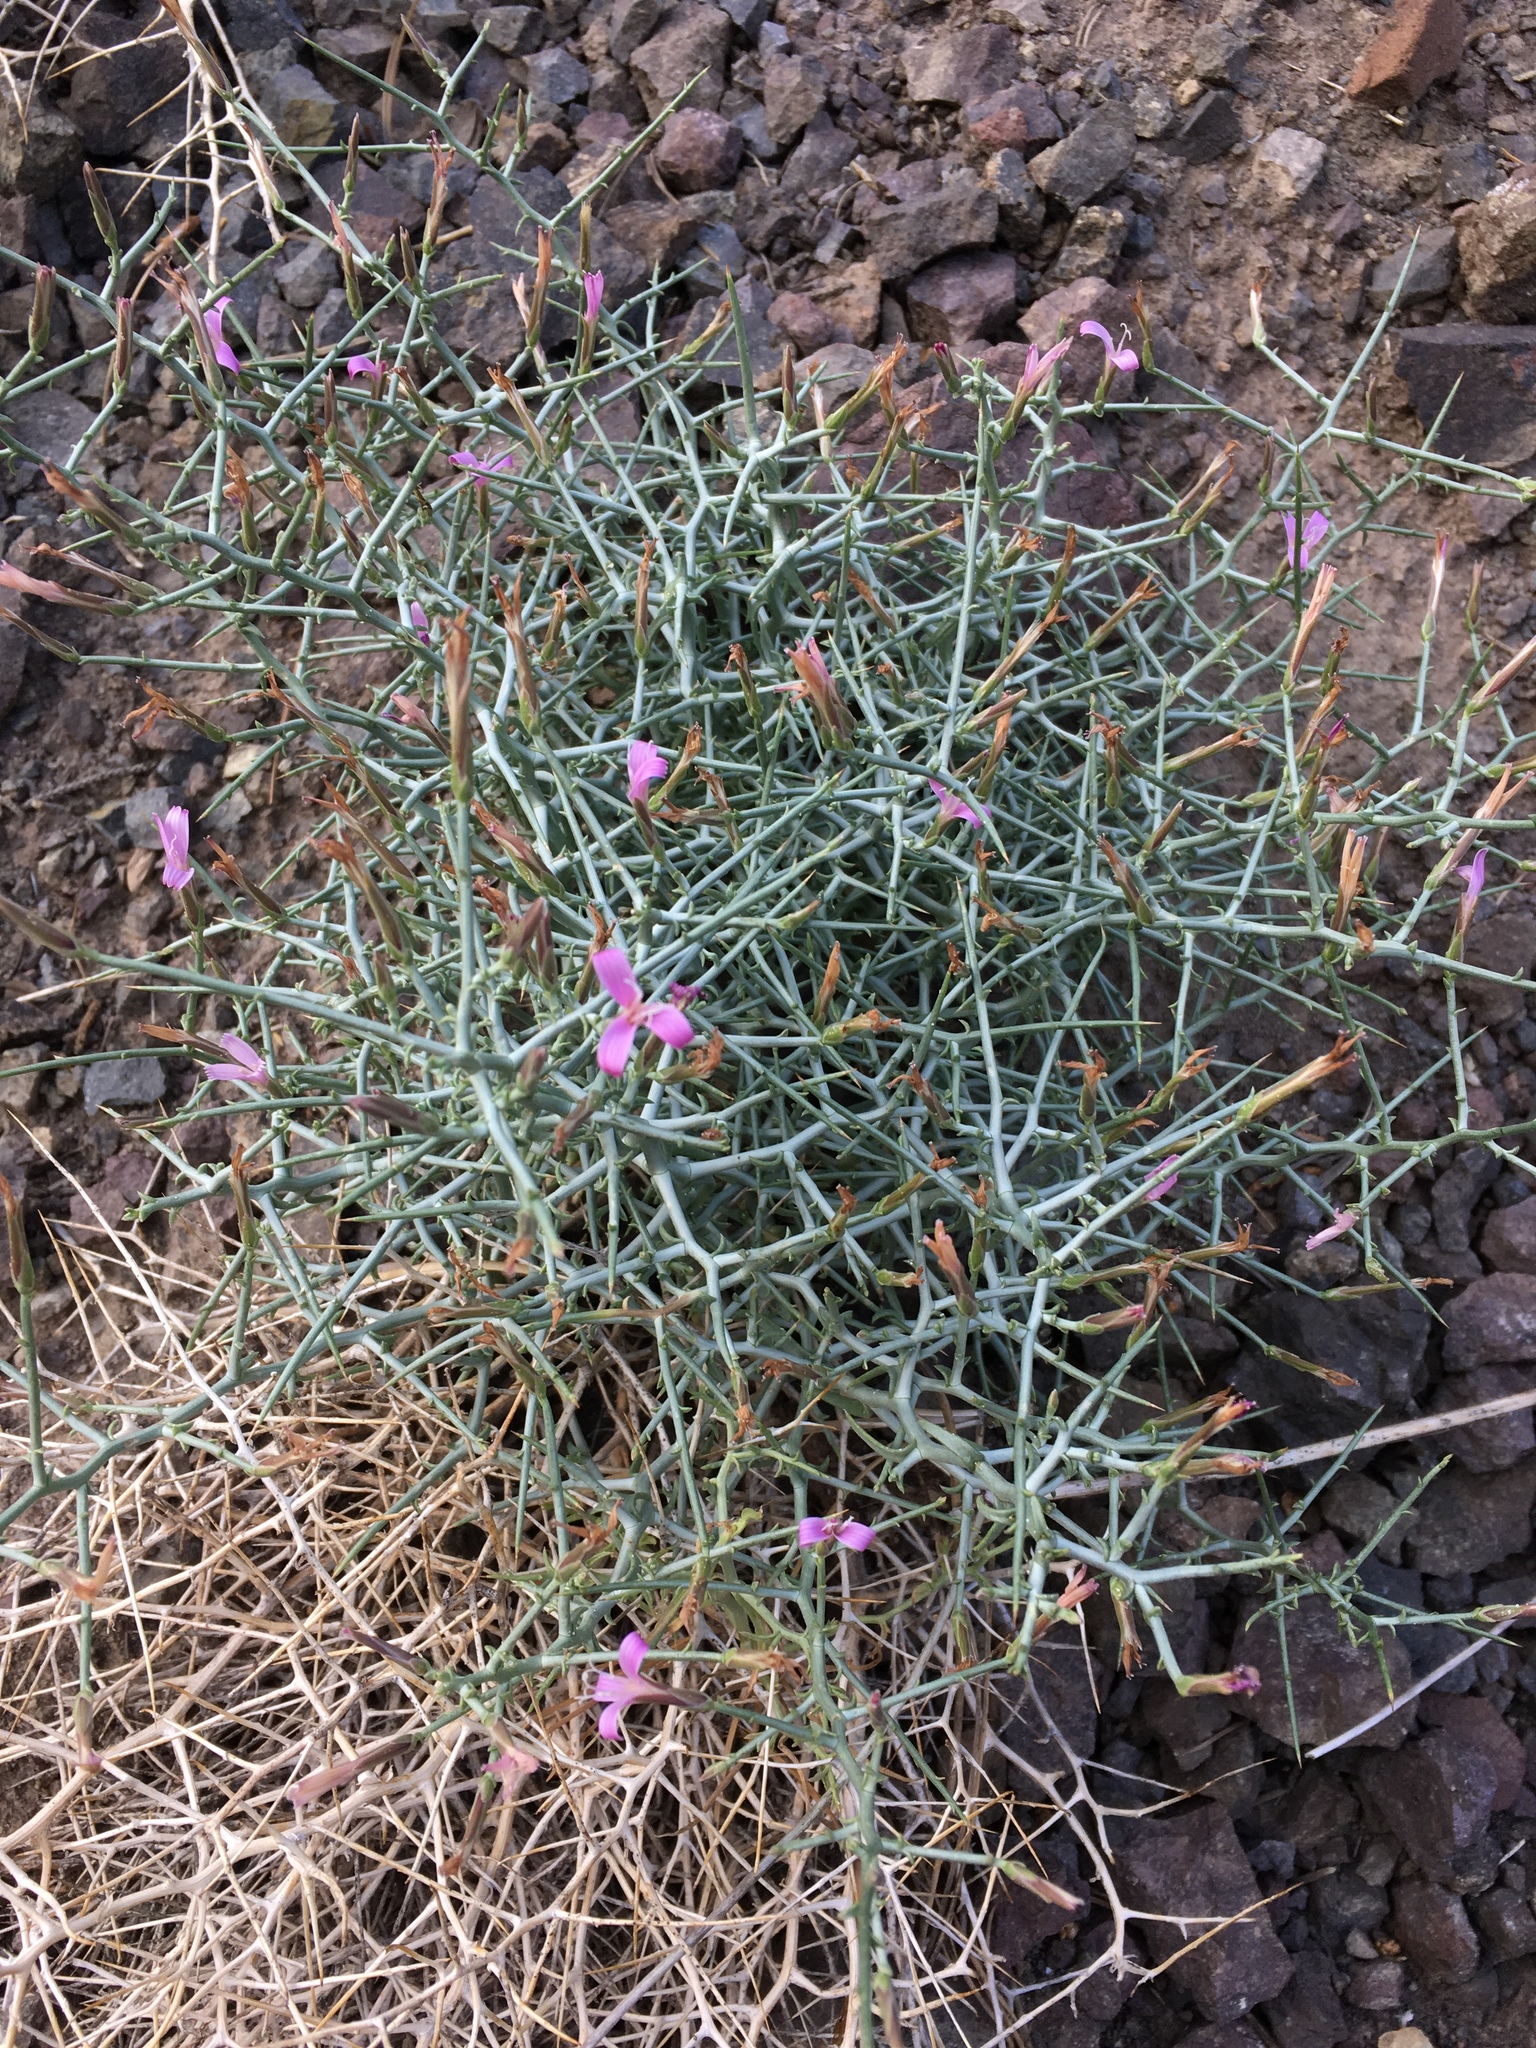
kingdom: Plantae
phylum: Tracheophyta
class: Magnoliopsida
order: Asterales
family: Asteraceae
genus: Pleiacanthus
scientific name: Pleiacanthus spinosus
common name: Thorny skeleton-weed
